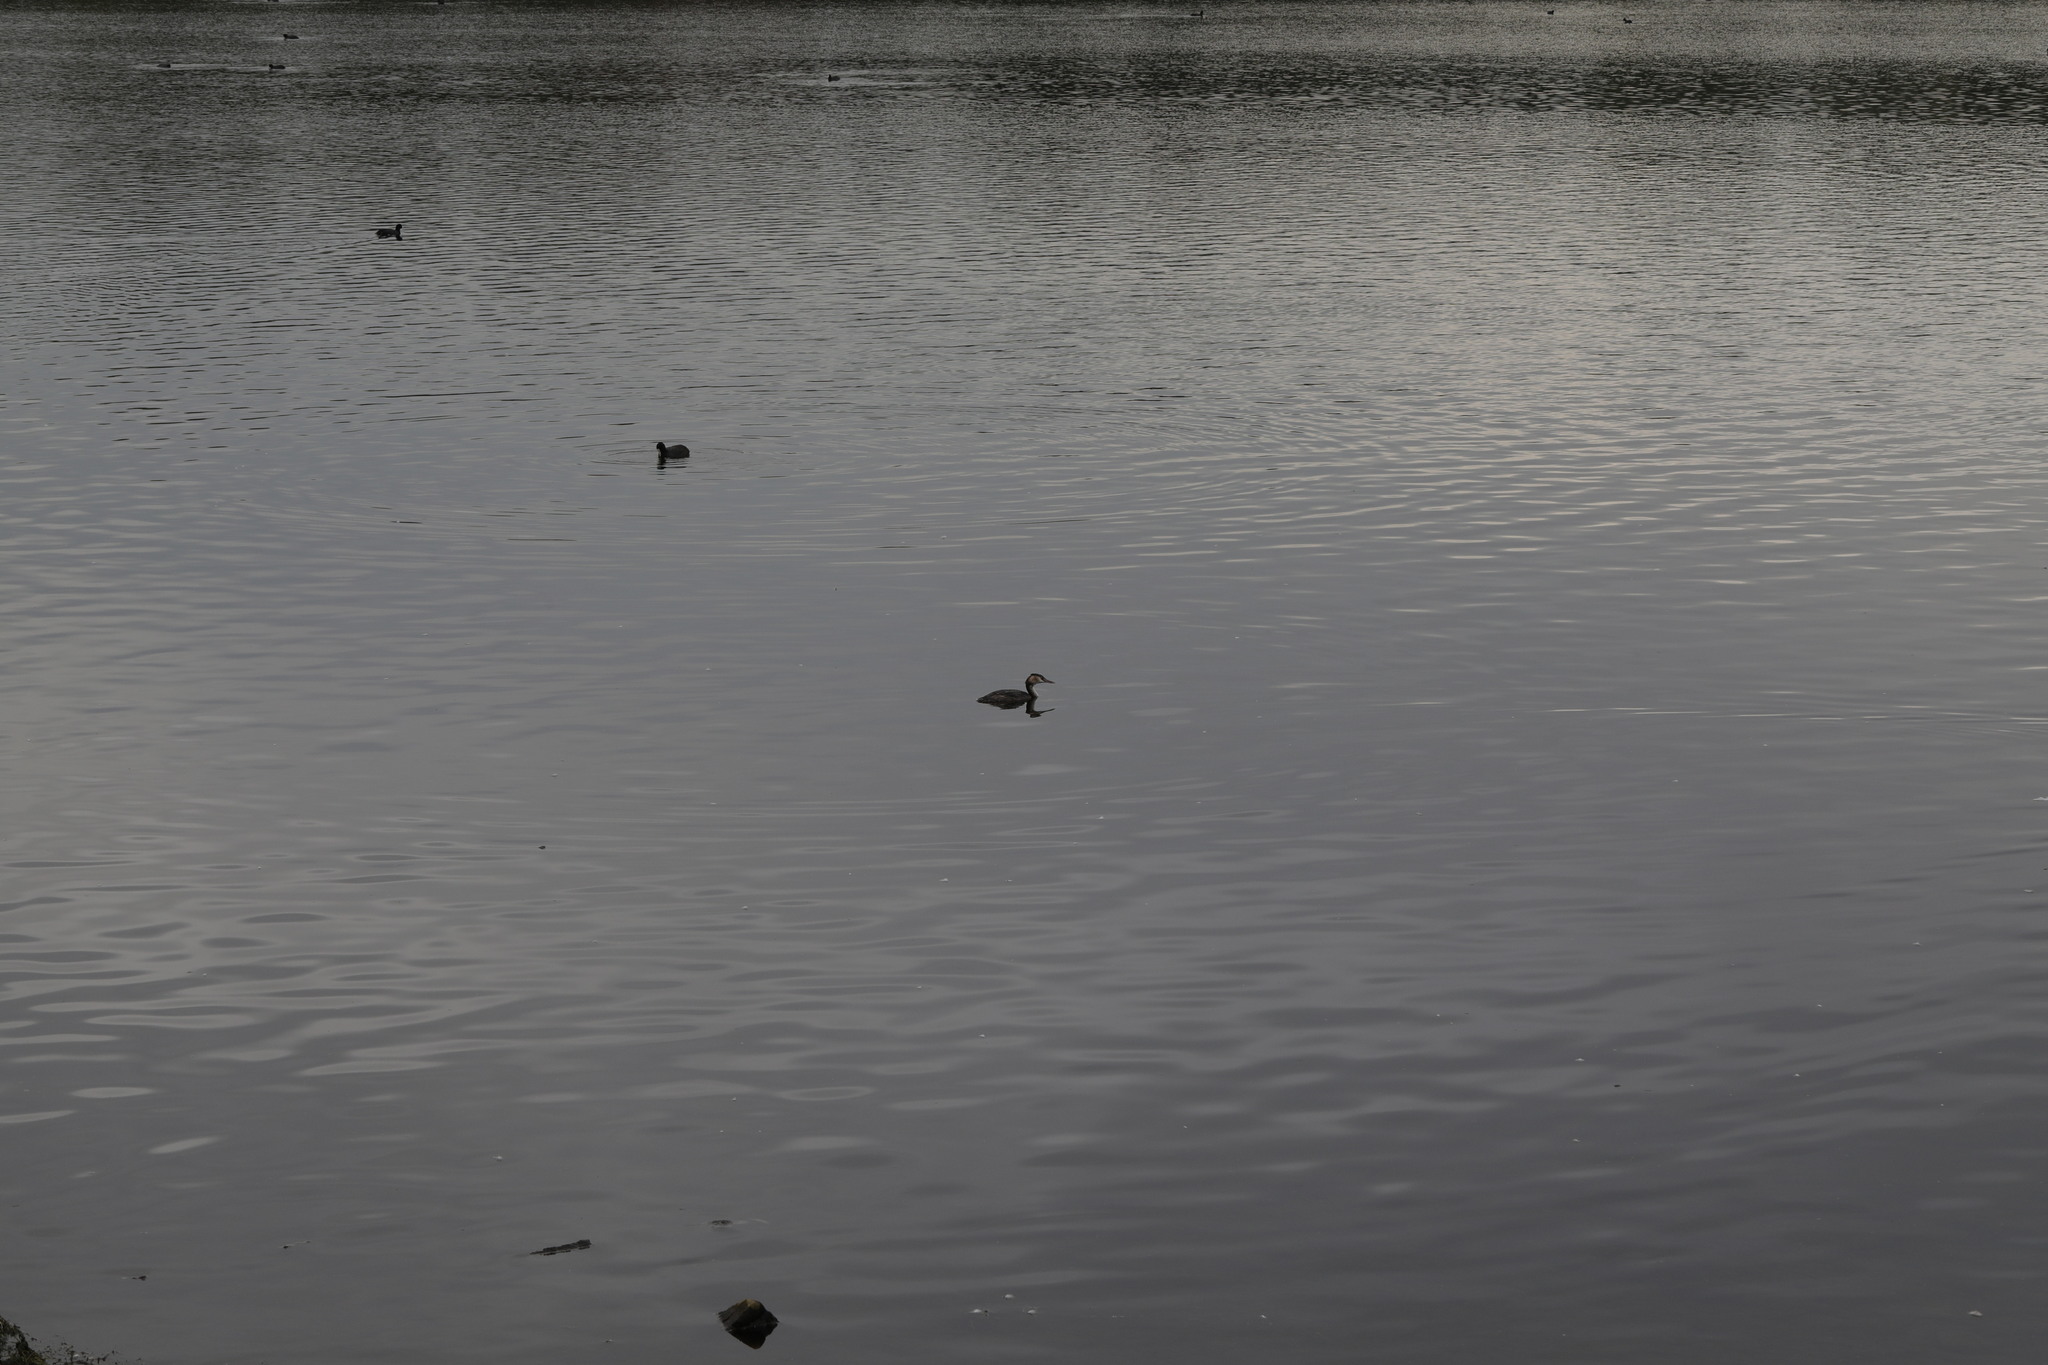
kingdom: Animalia
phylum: Chordata
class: Aves
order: Podicipediformes
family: Podicipedidae
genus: Podiceps
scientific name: Podiceps cristatus
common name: Great crested grebe
